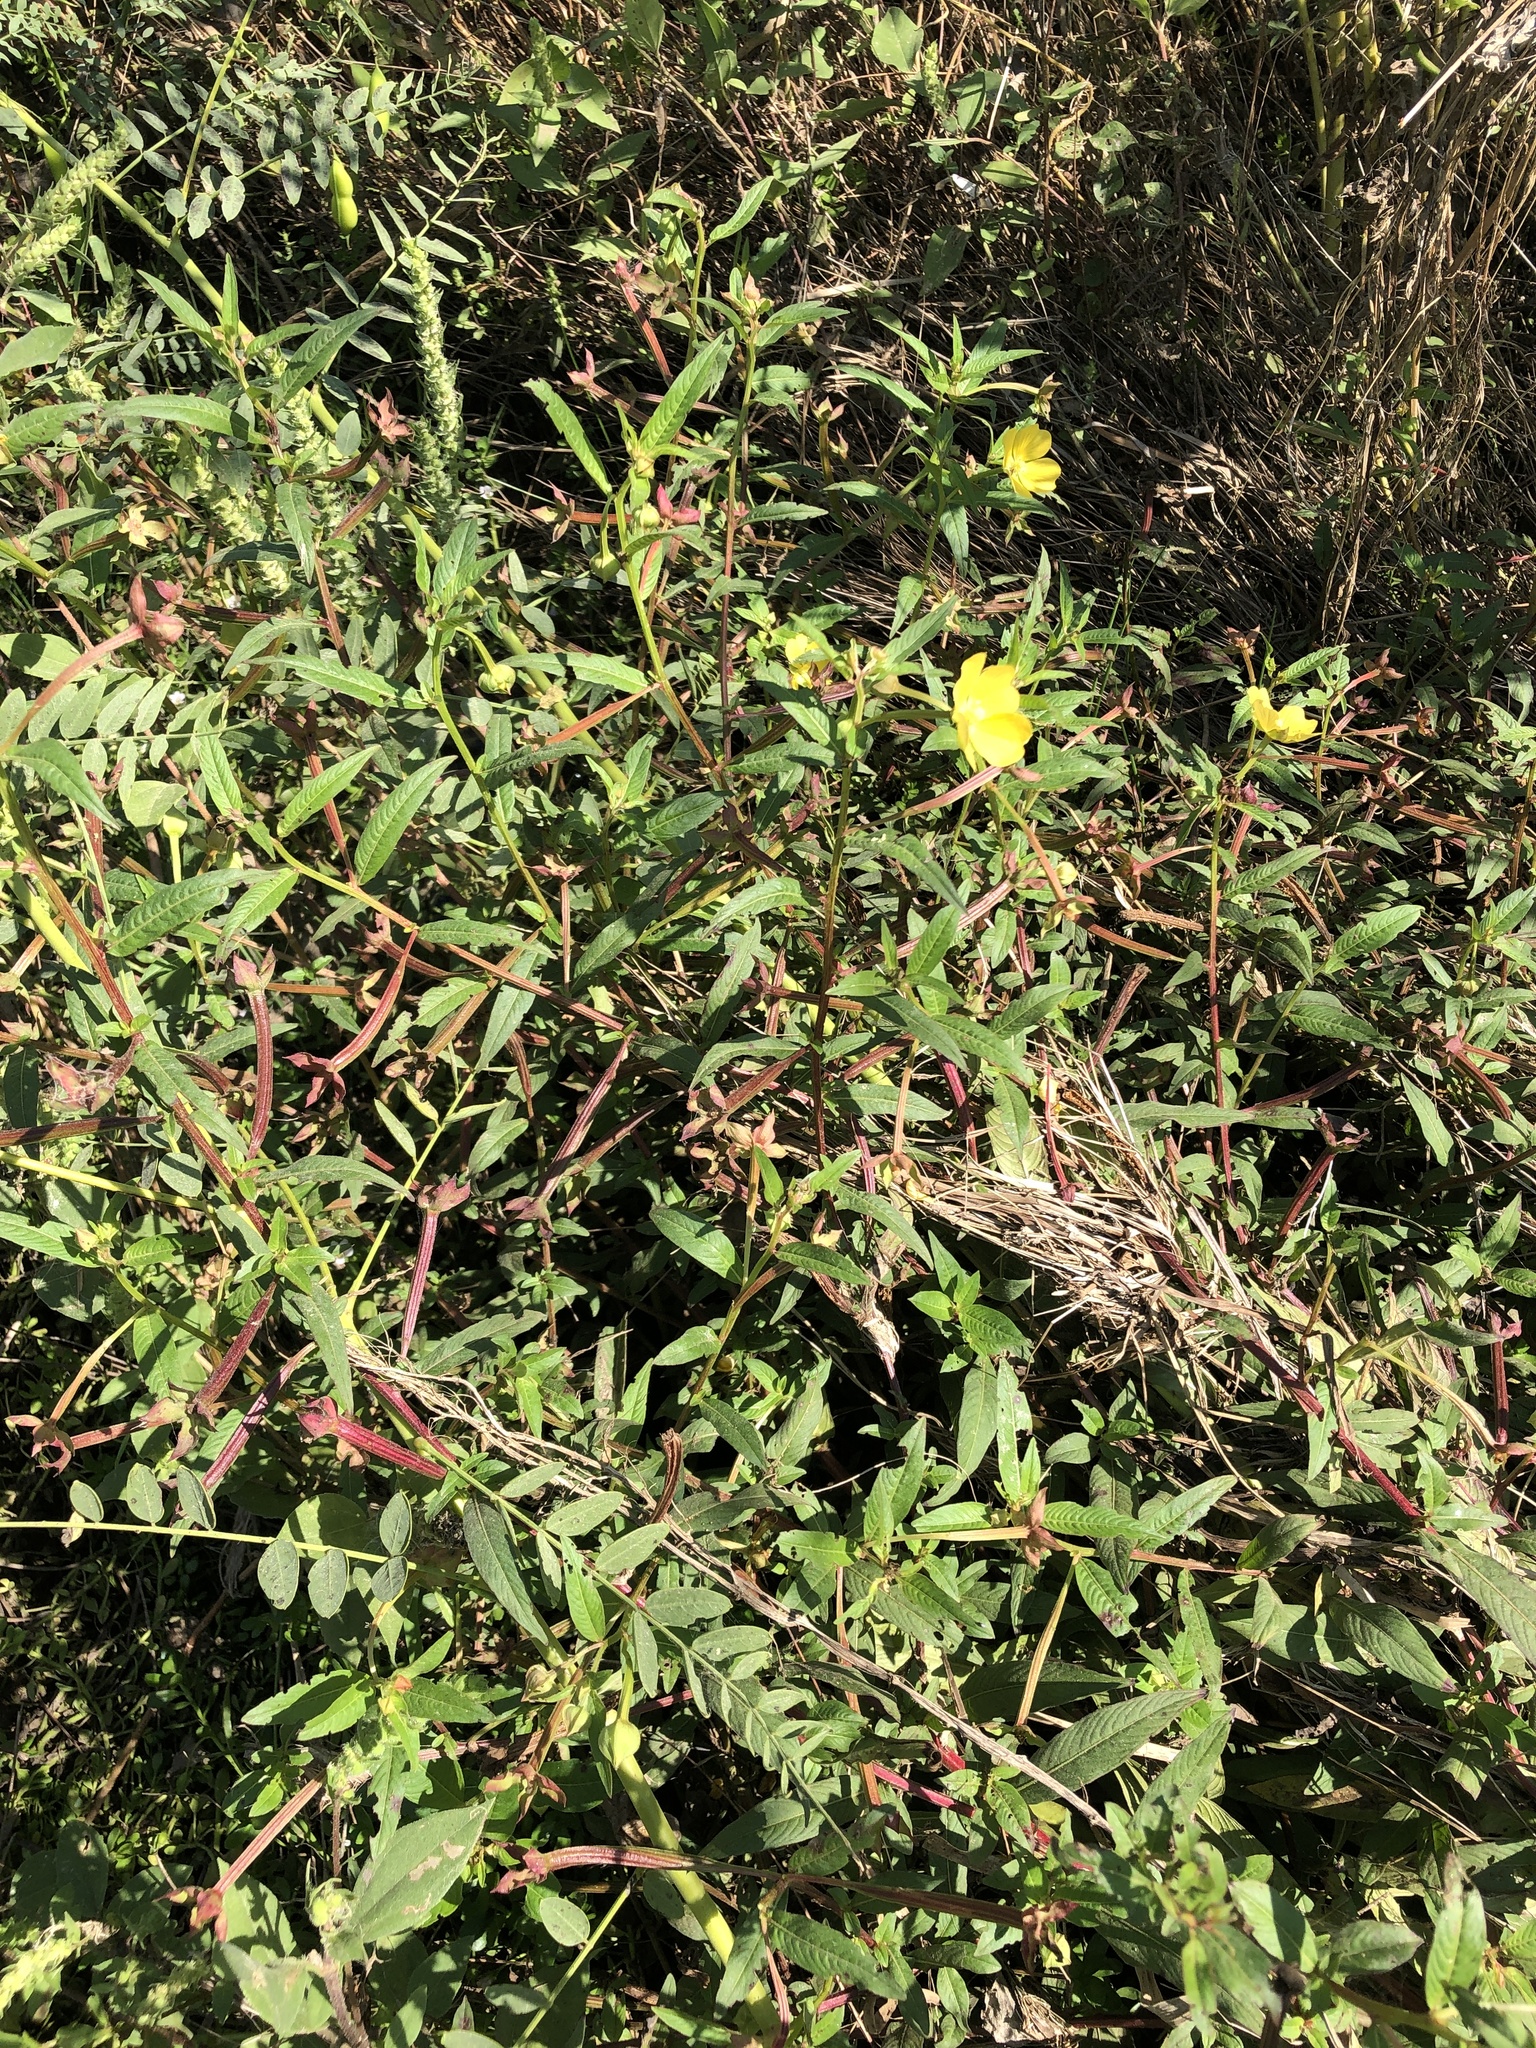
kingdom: Plantae
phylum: Tracheophyta
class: Magnoliopsida
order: Myrtales
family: Onagraceae
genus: Ludwigia
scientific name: Ludwigia octovalvis
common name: Water-primrose
